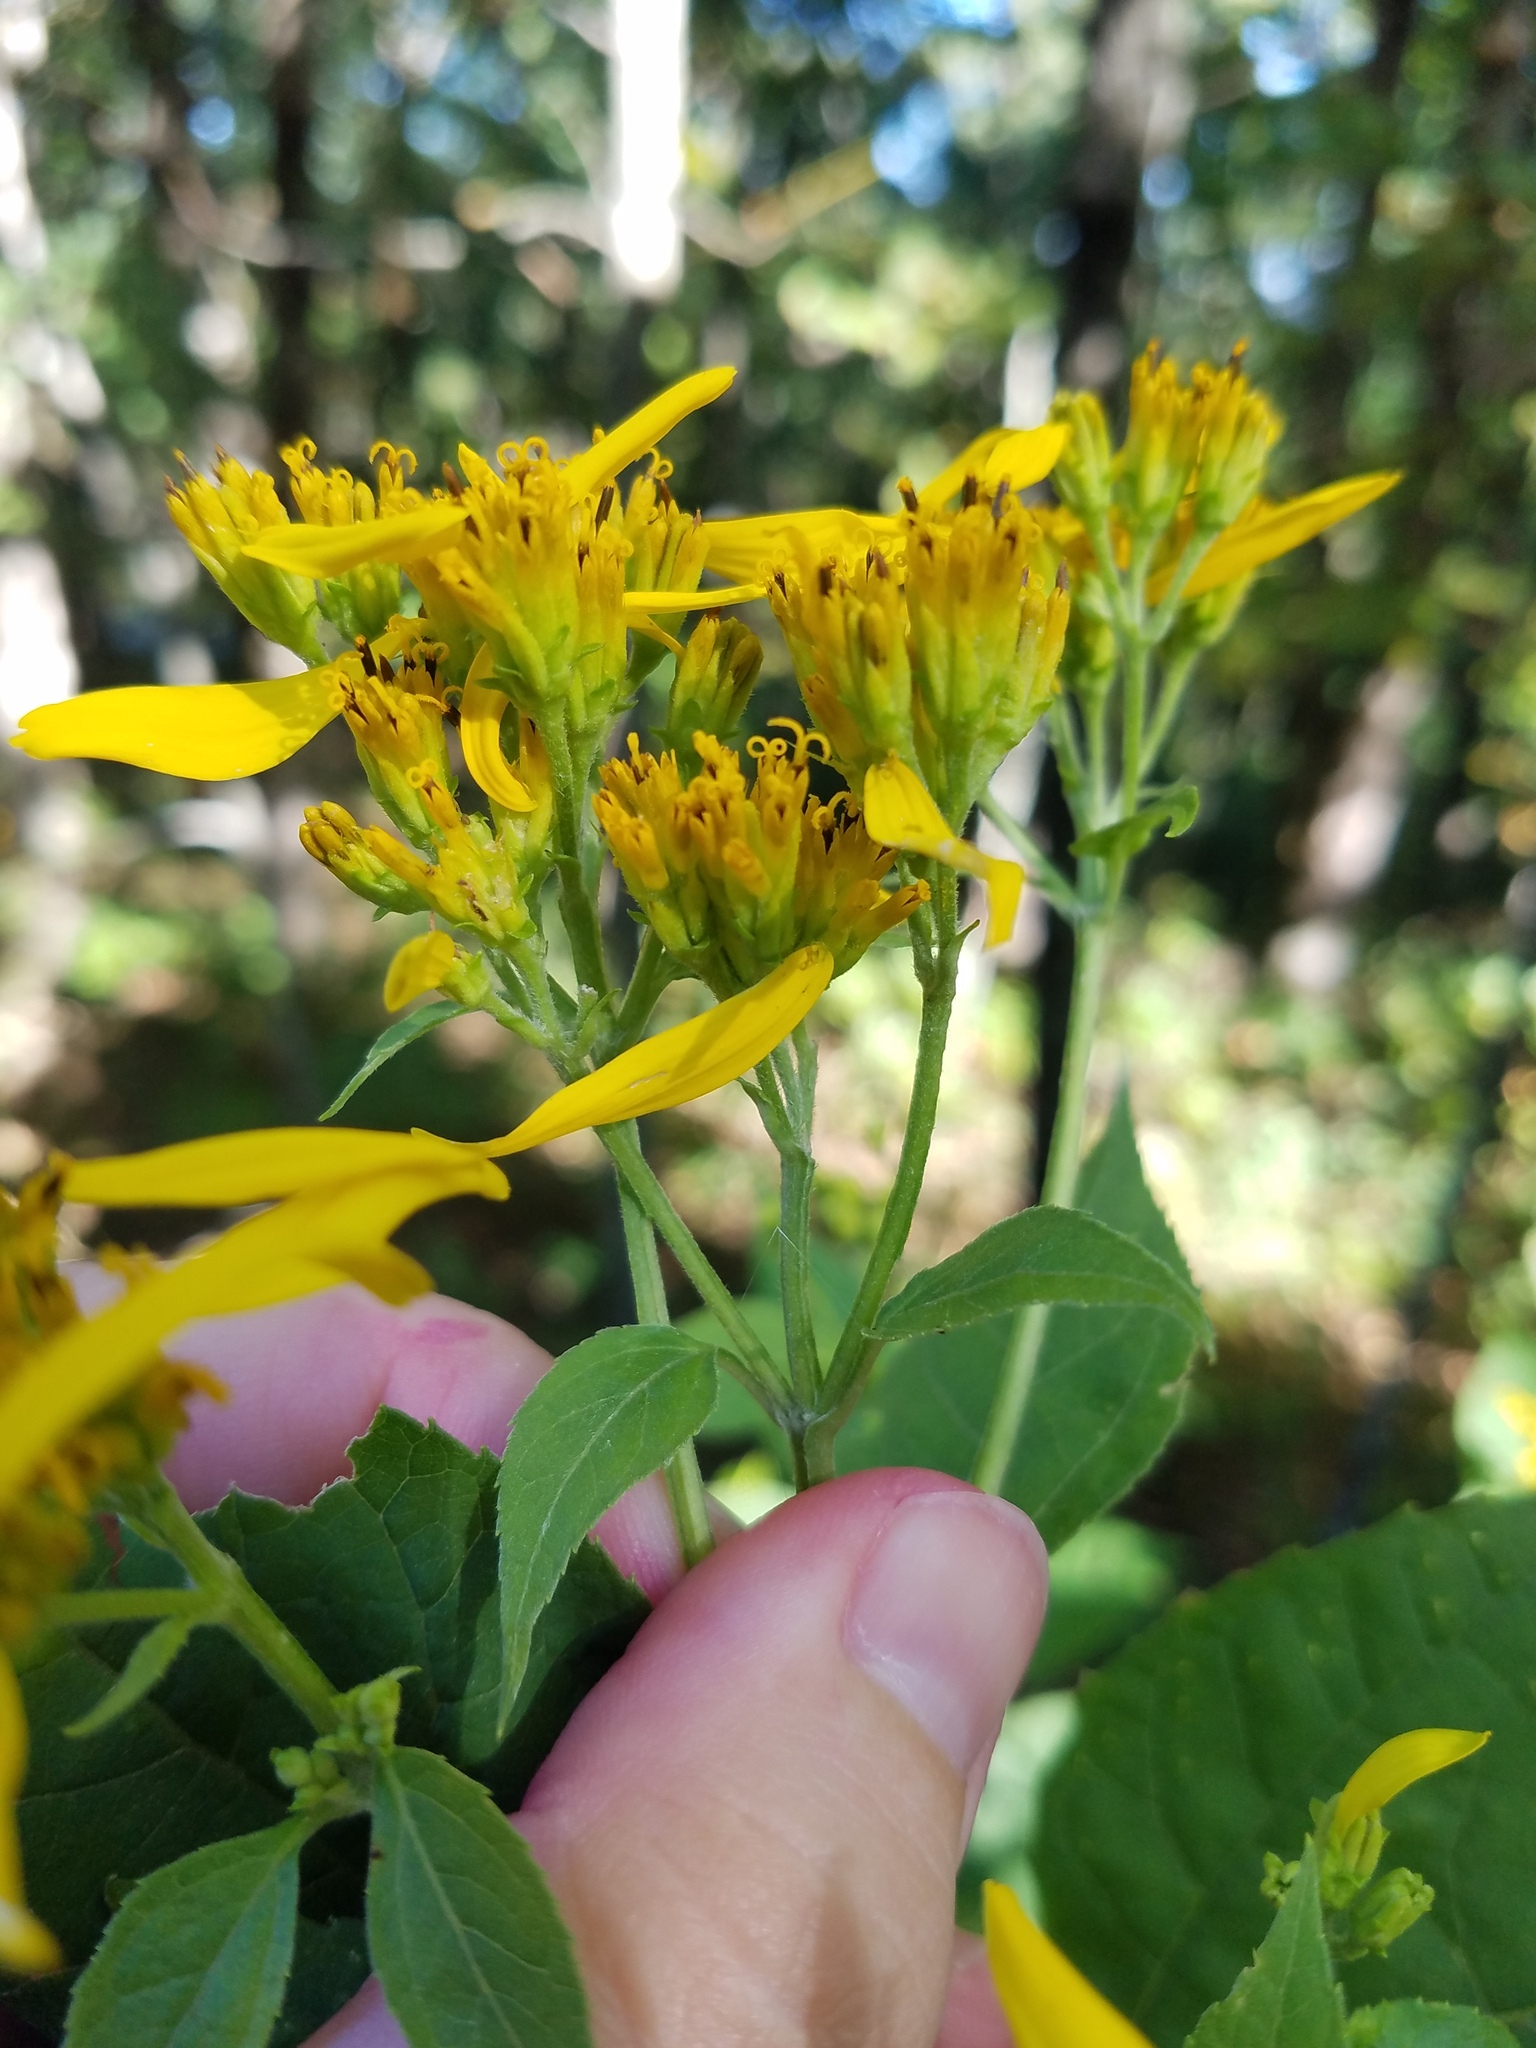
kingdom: Plantae
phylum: Tracheophyta
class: Magnoliopsida
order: Asterales
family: Asteraceae
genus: Verbesina
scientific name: Verbesina occidentalis
